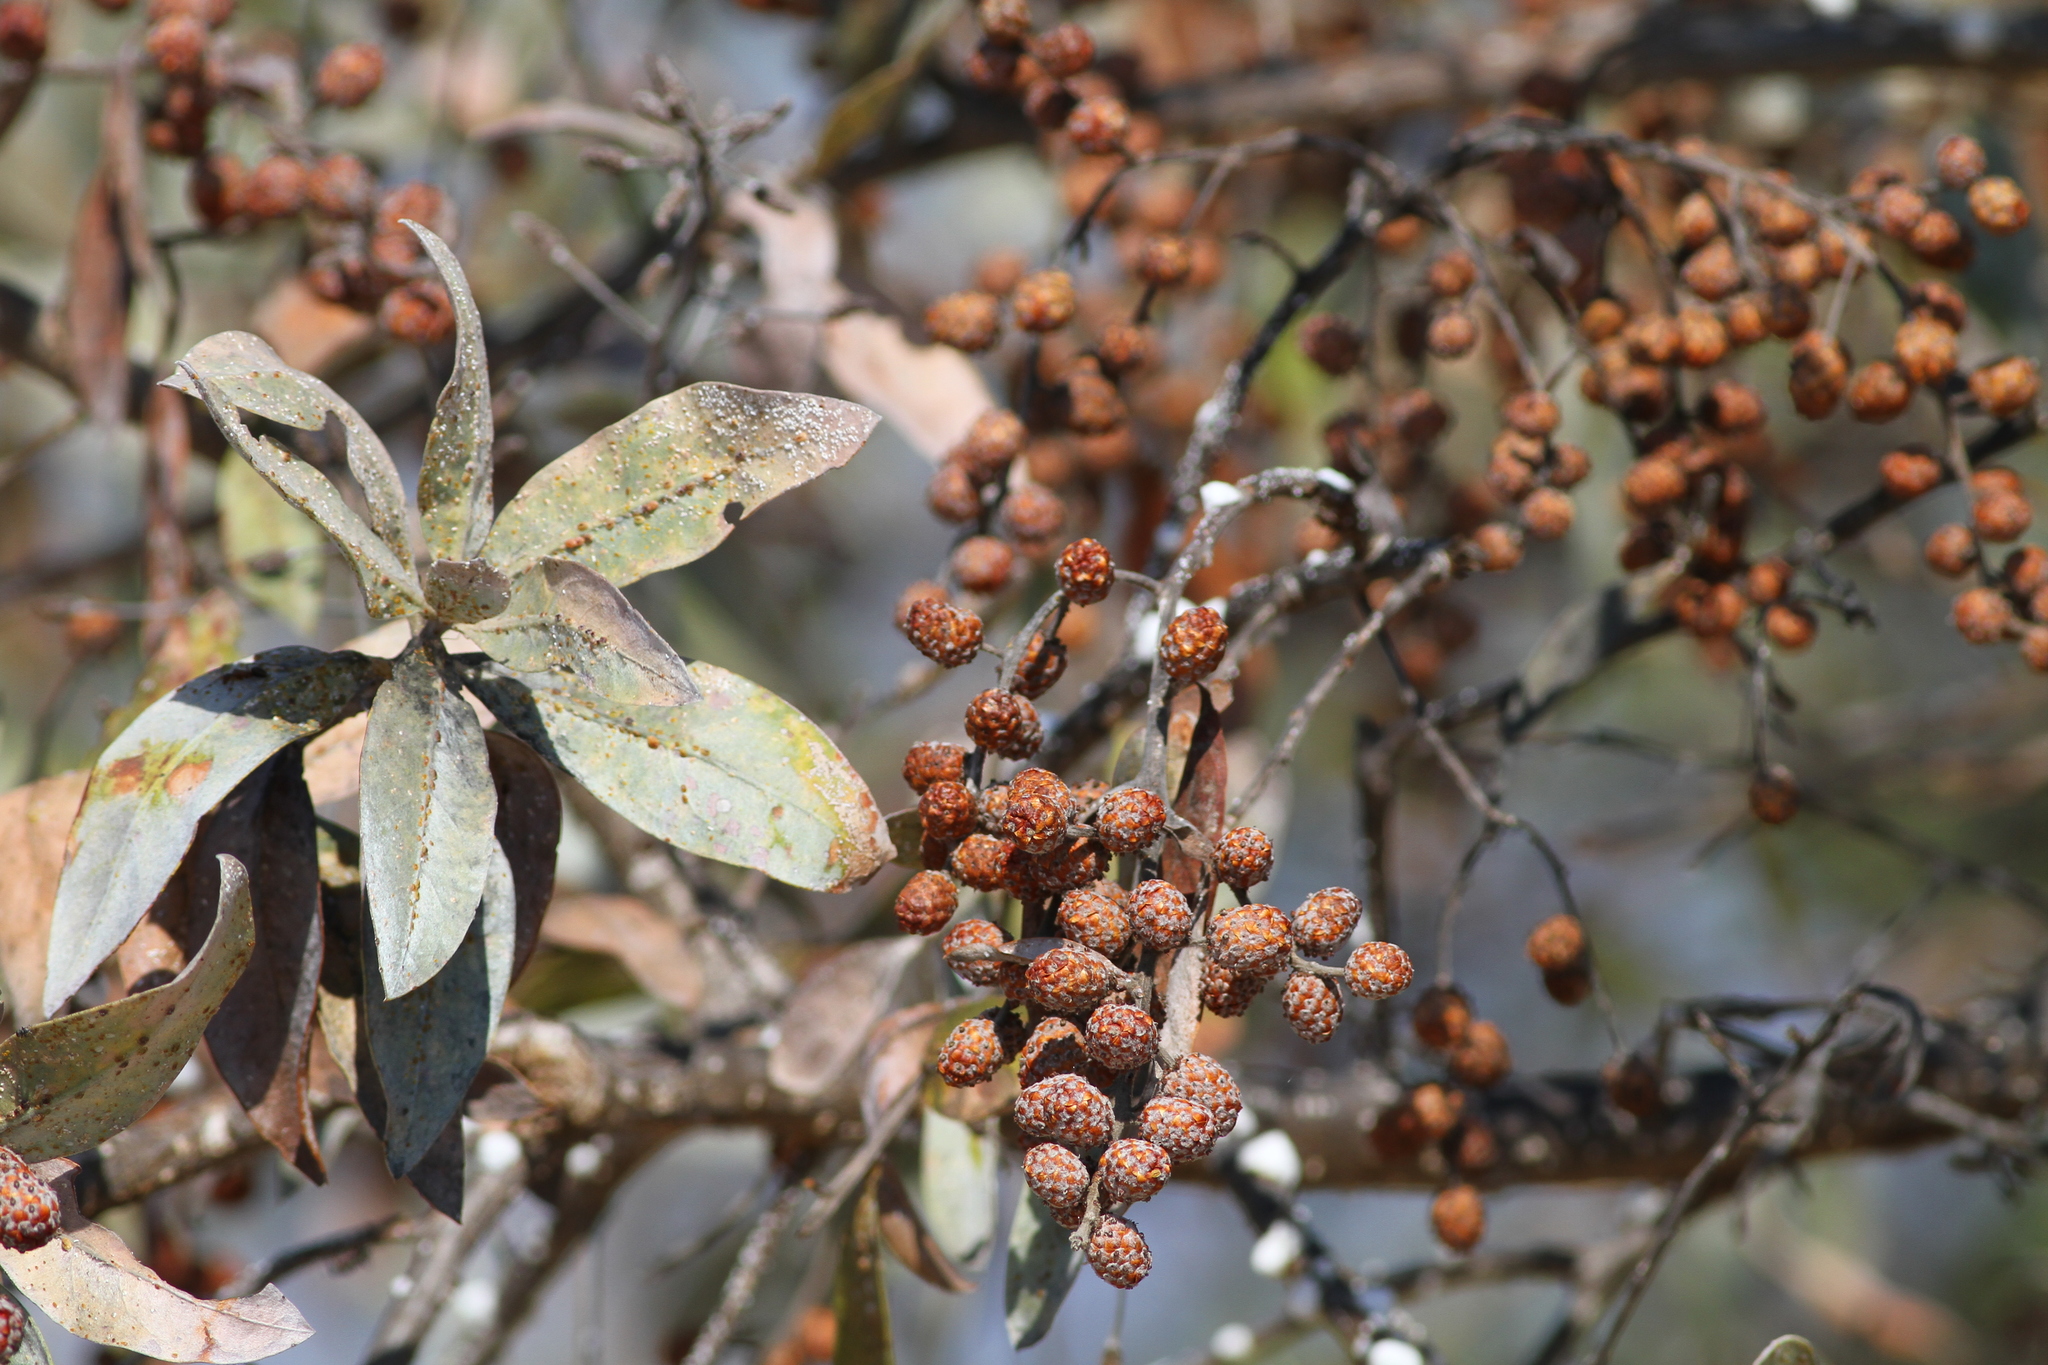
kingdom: Plantae
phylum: Tracheophyta
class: Magnoliopsida
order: Myrtales
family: Combretaceae
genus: Conocarpus
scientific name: Conocarpus erectus
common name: Button mangrove
